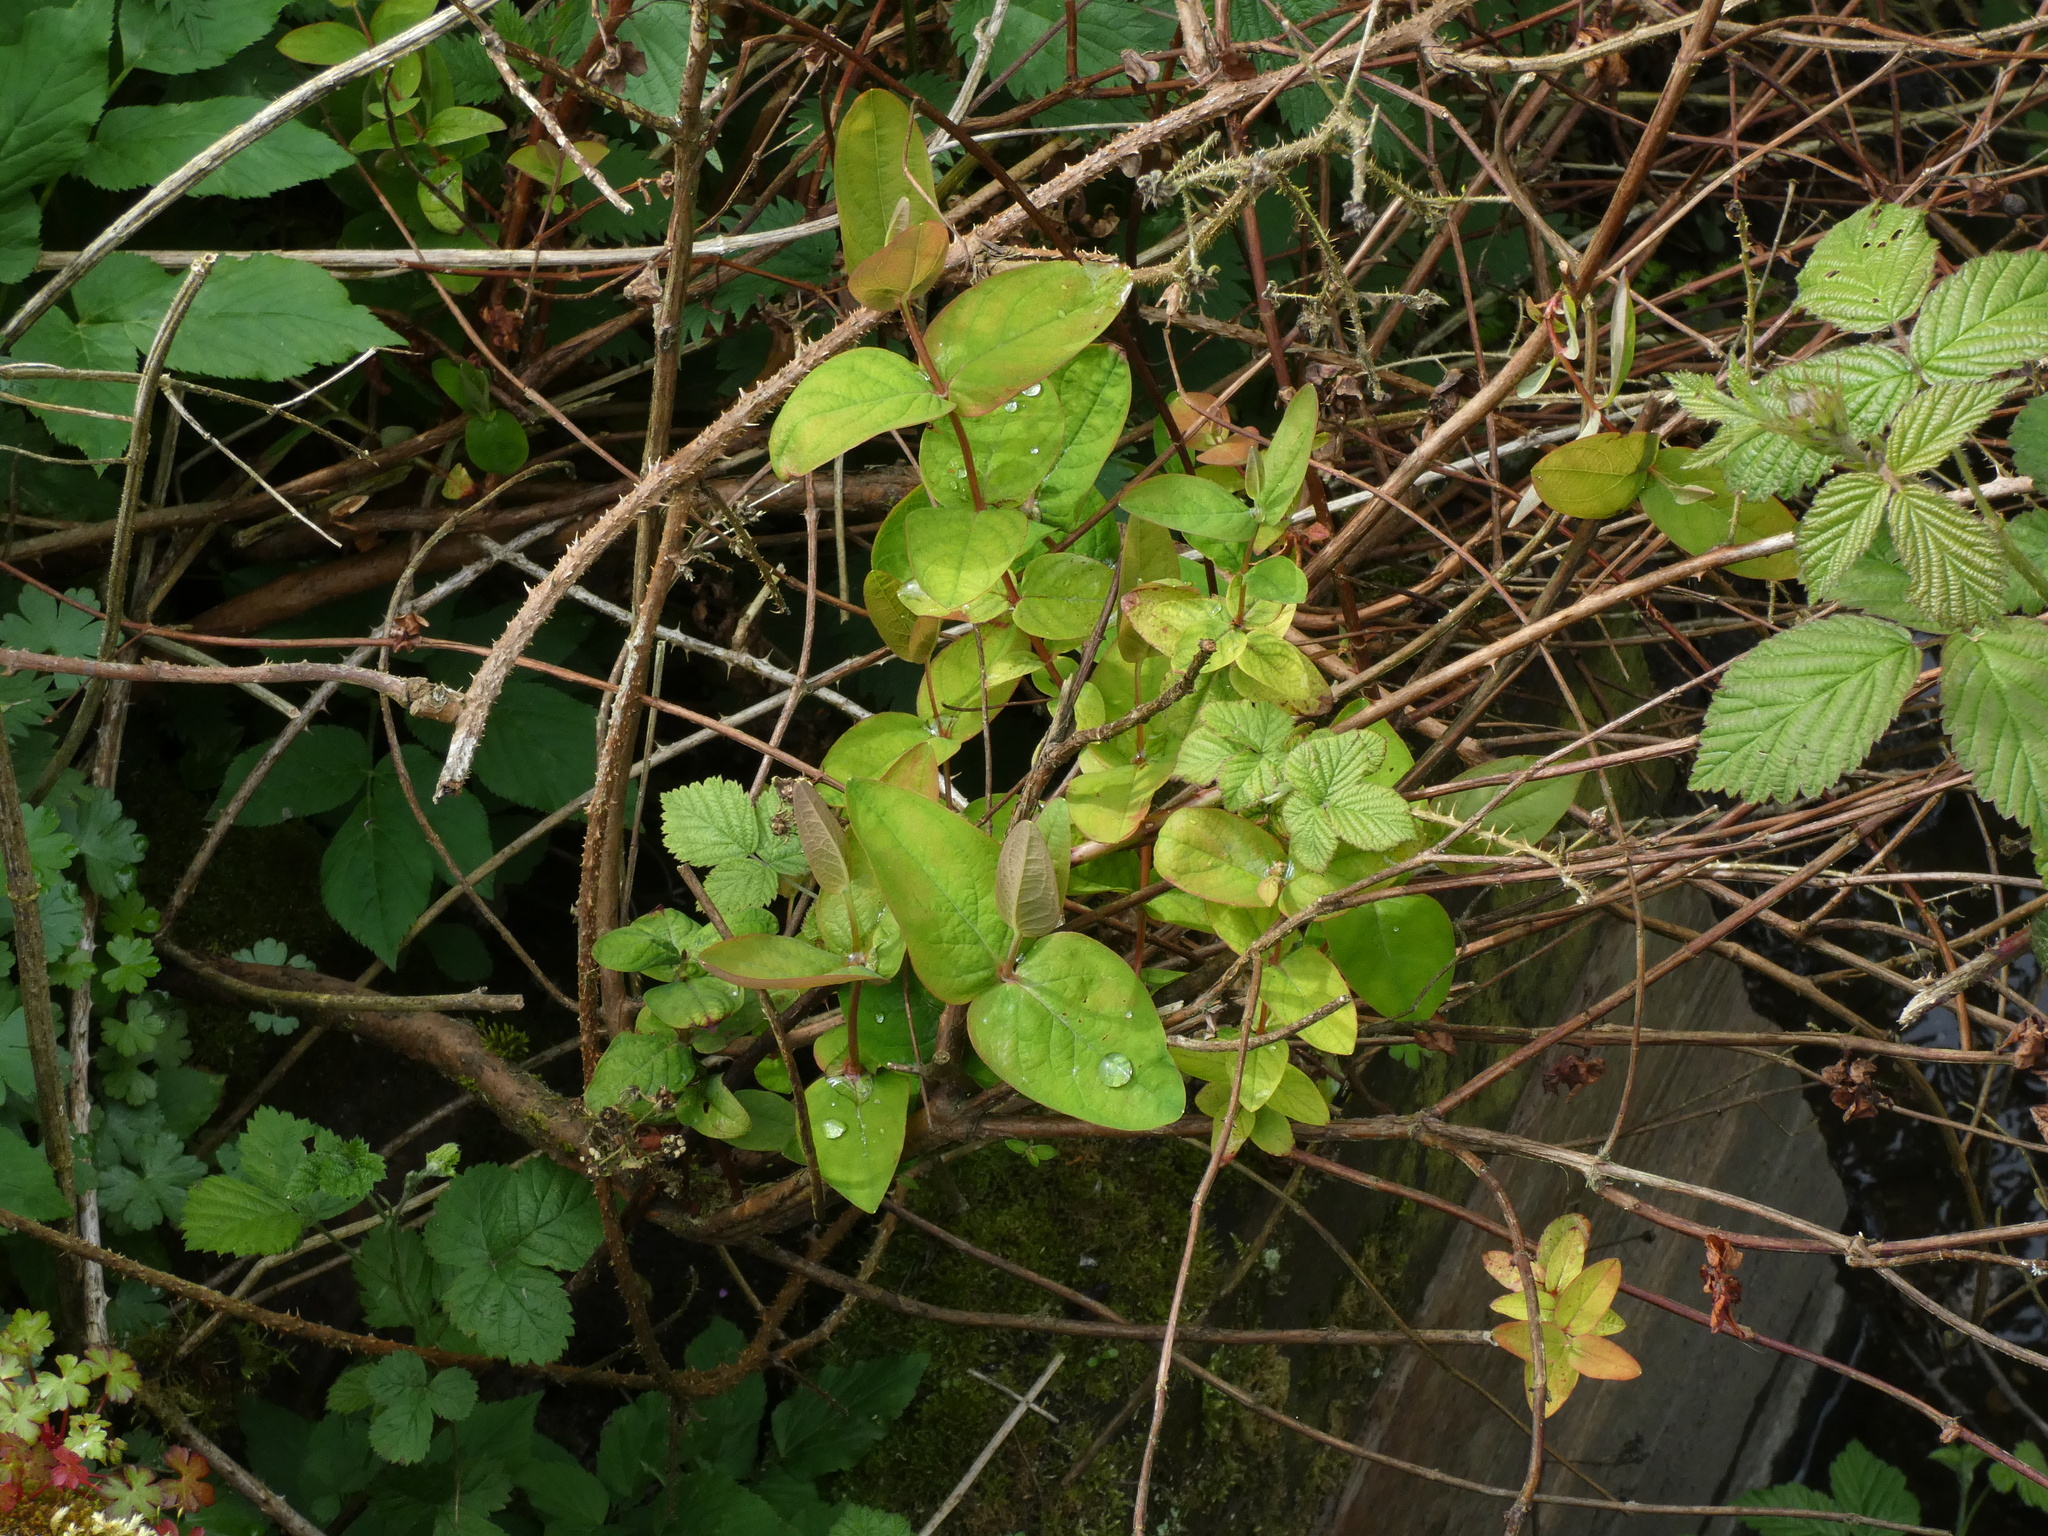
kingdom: Plantae
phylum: Tracheophyta
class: Magnoliopsida
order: Malpighiales
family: Hypericaceae
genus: Hypericum
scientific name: Hypericum androsaemum
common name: Sweet-amber
